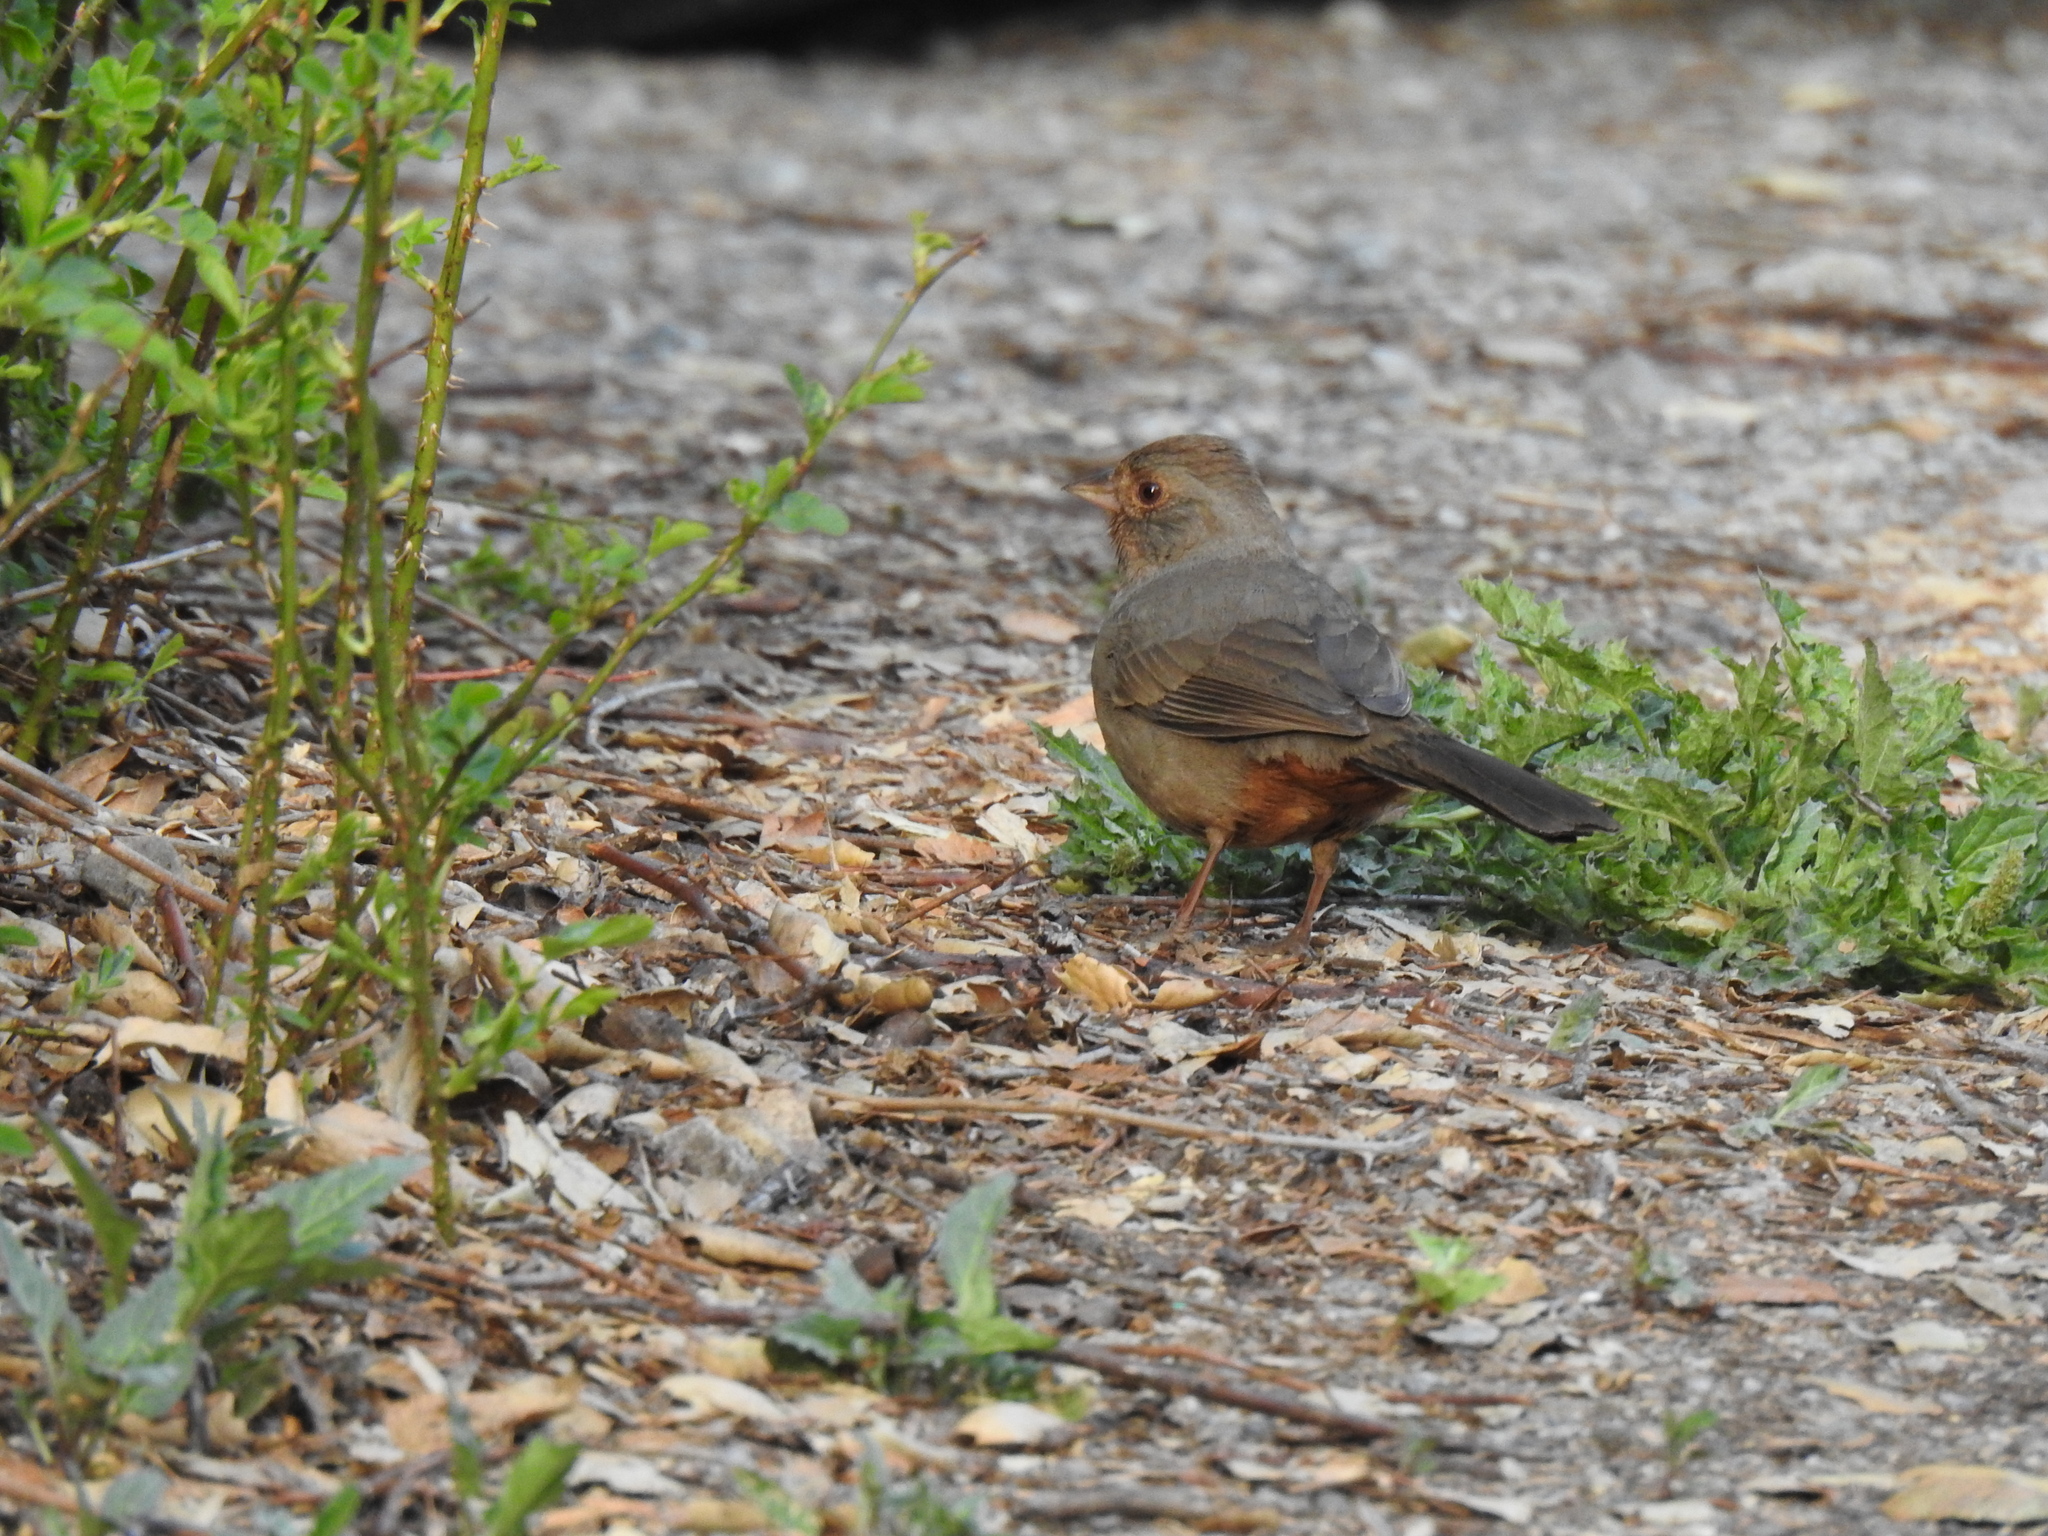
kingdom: Animalia
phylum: Chordata
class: Aves
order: Passeriformes
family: Passerellidae
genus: Melozone
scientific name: Melozone crissalis
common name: California towhee
